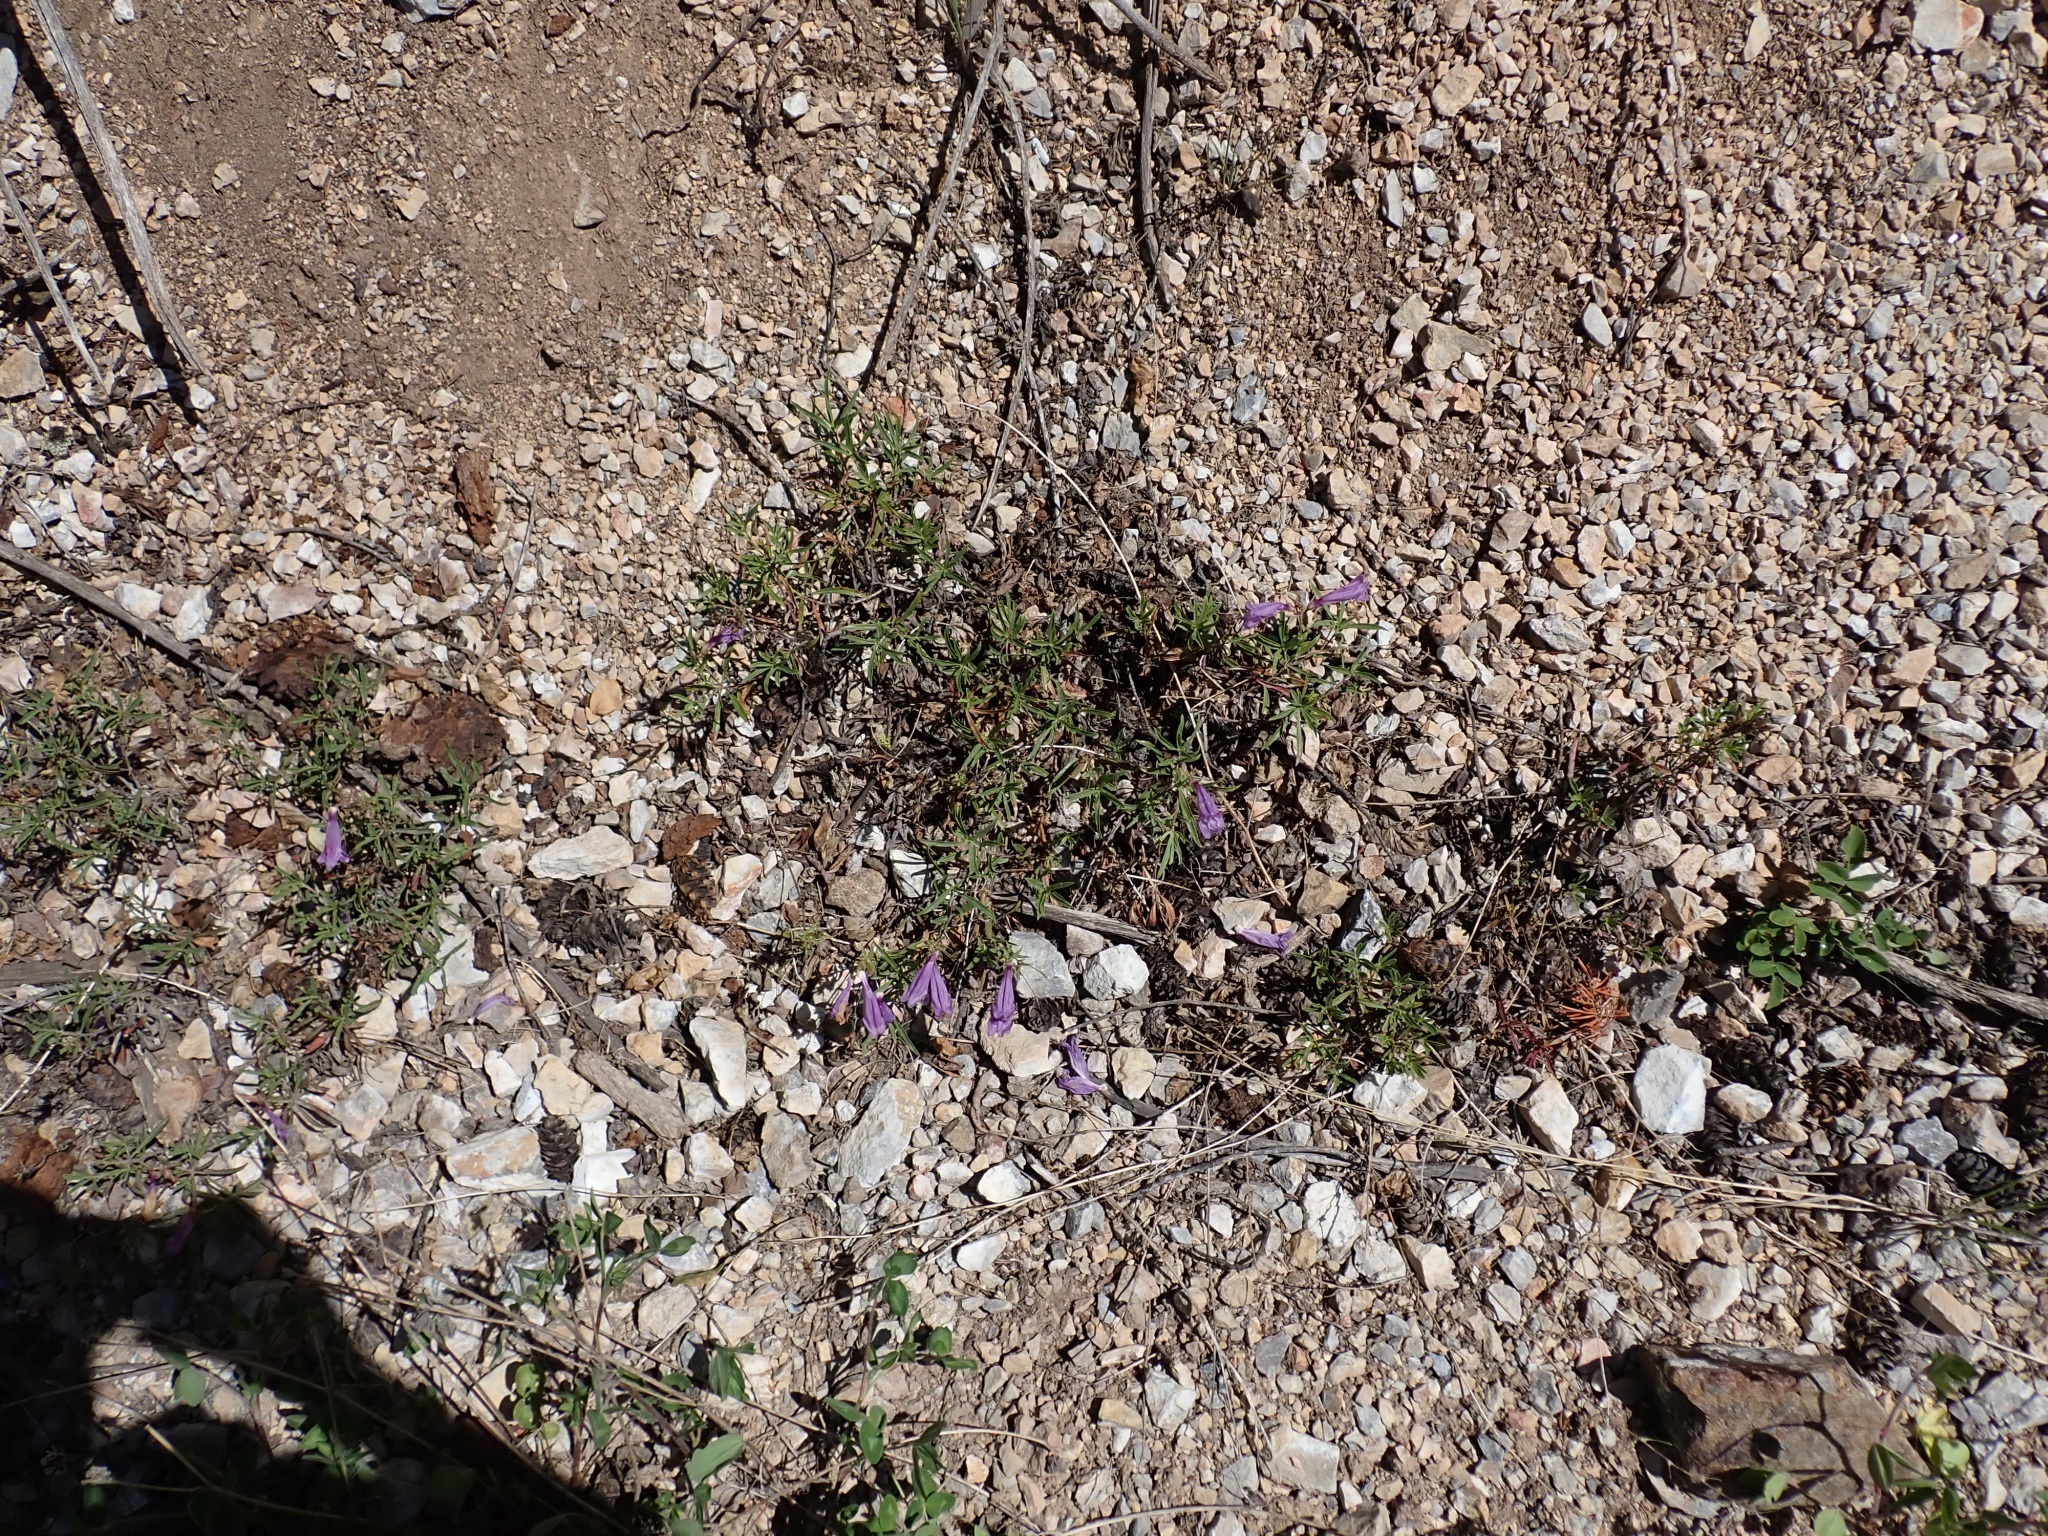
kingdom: Plantae
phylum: Tracheophyta
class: Magnoliopsida
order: Lamiales
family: Plantaginaceae
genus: Penstemon
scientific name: Penstemon fruticosus
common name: Bush penstemon
